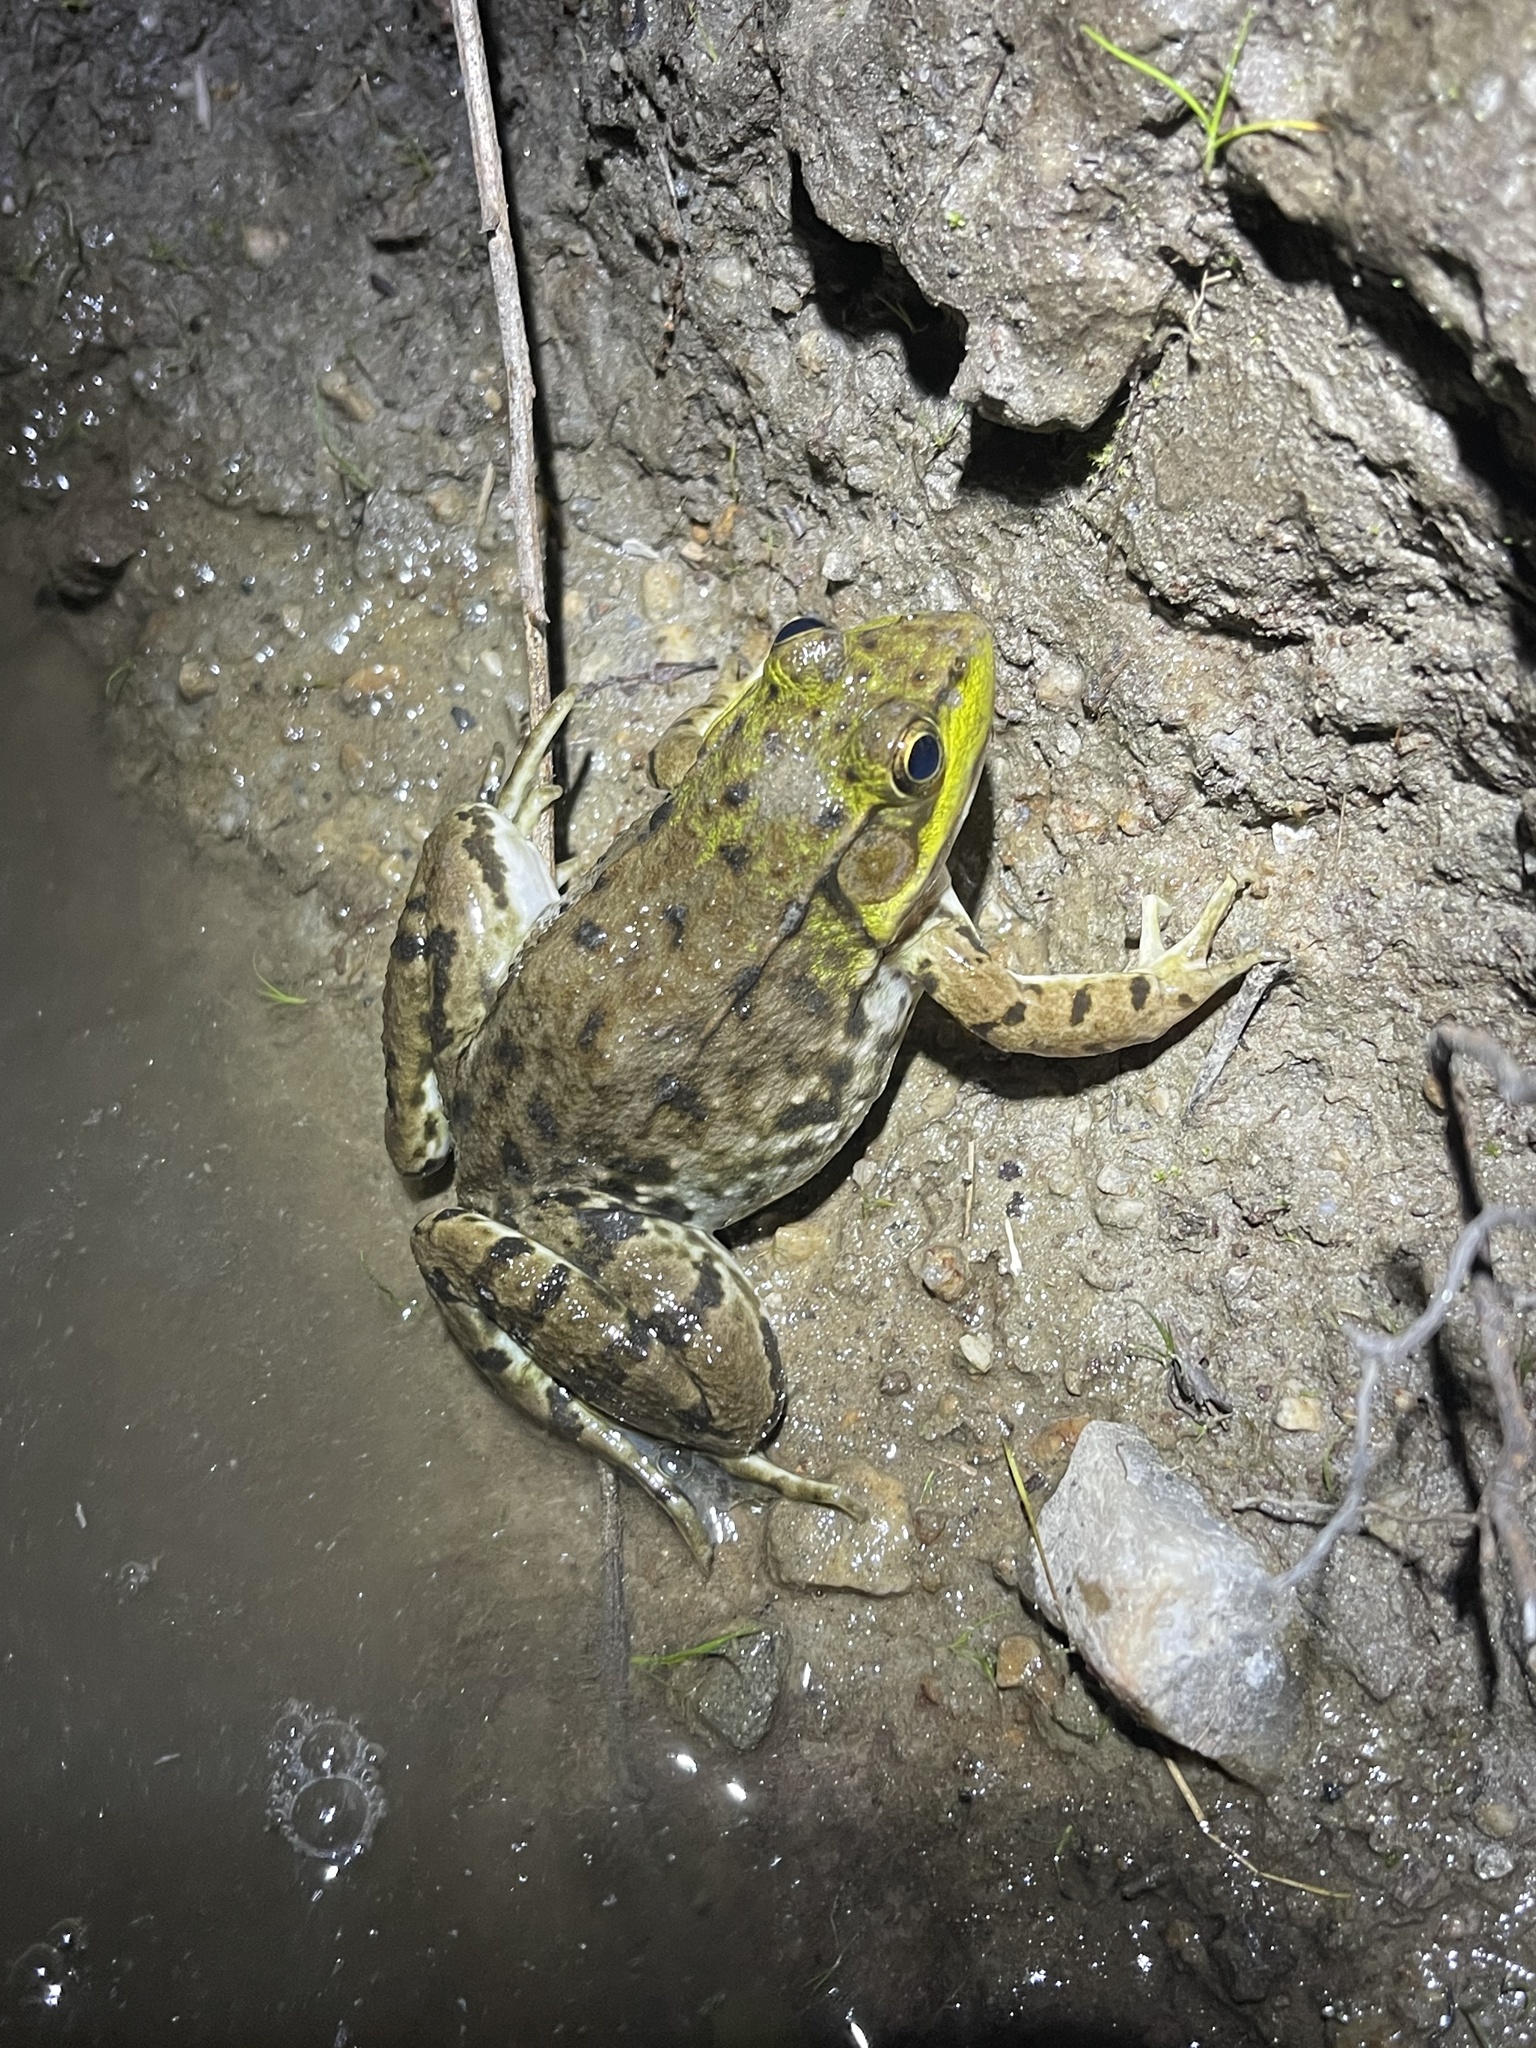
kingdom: Animalia
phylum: Chordata
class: Amphibia
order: Anura
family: Ranidae
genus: Lithobates
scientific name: Lithobates clamitans
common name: Green frog
